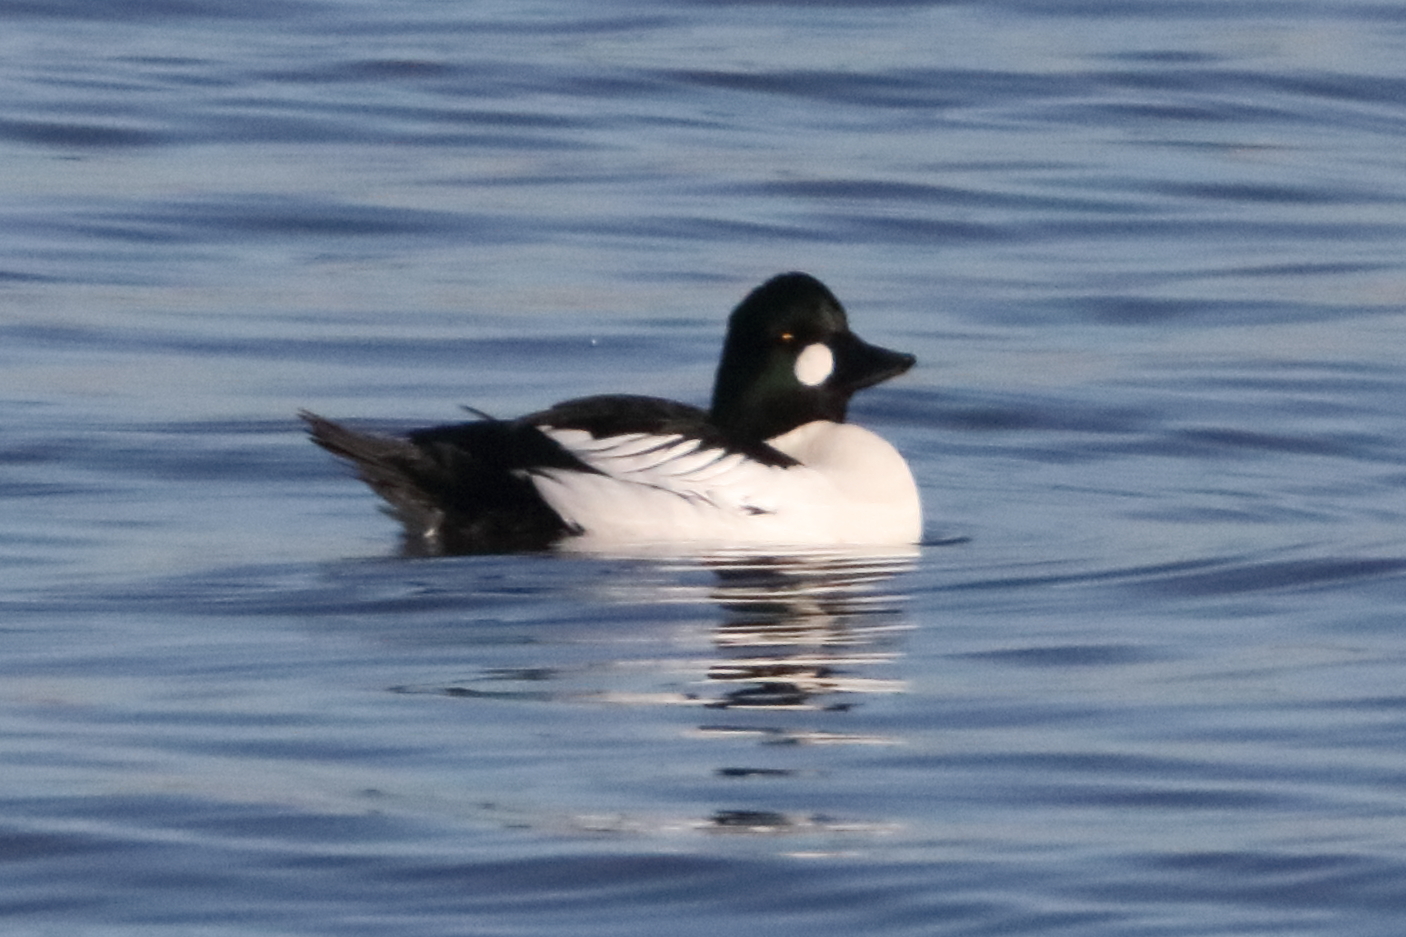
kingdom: Animalia
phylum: Chordata
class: Aves
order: Anseriformes
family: Anatidae
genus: Bucephala
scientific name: Bucephala clangula
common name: Common goldeneye
